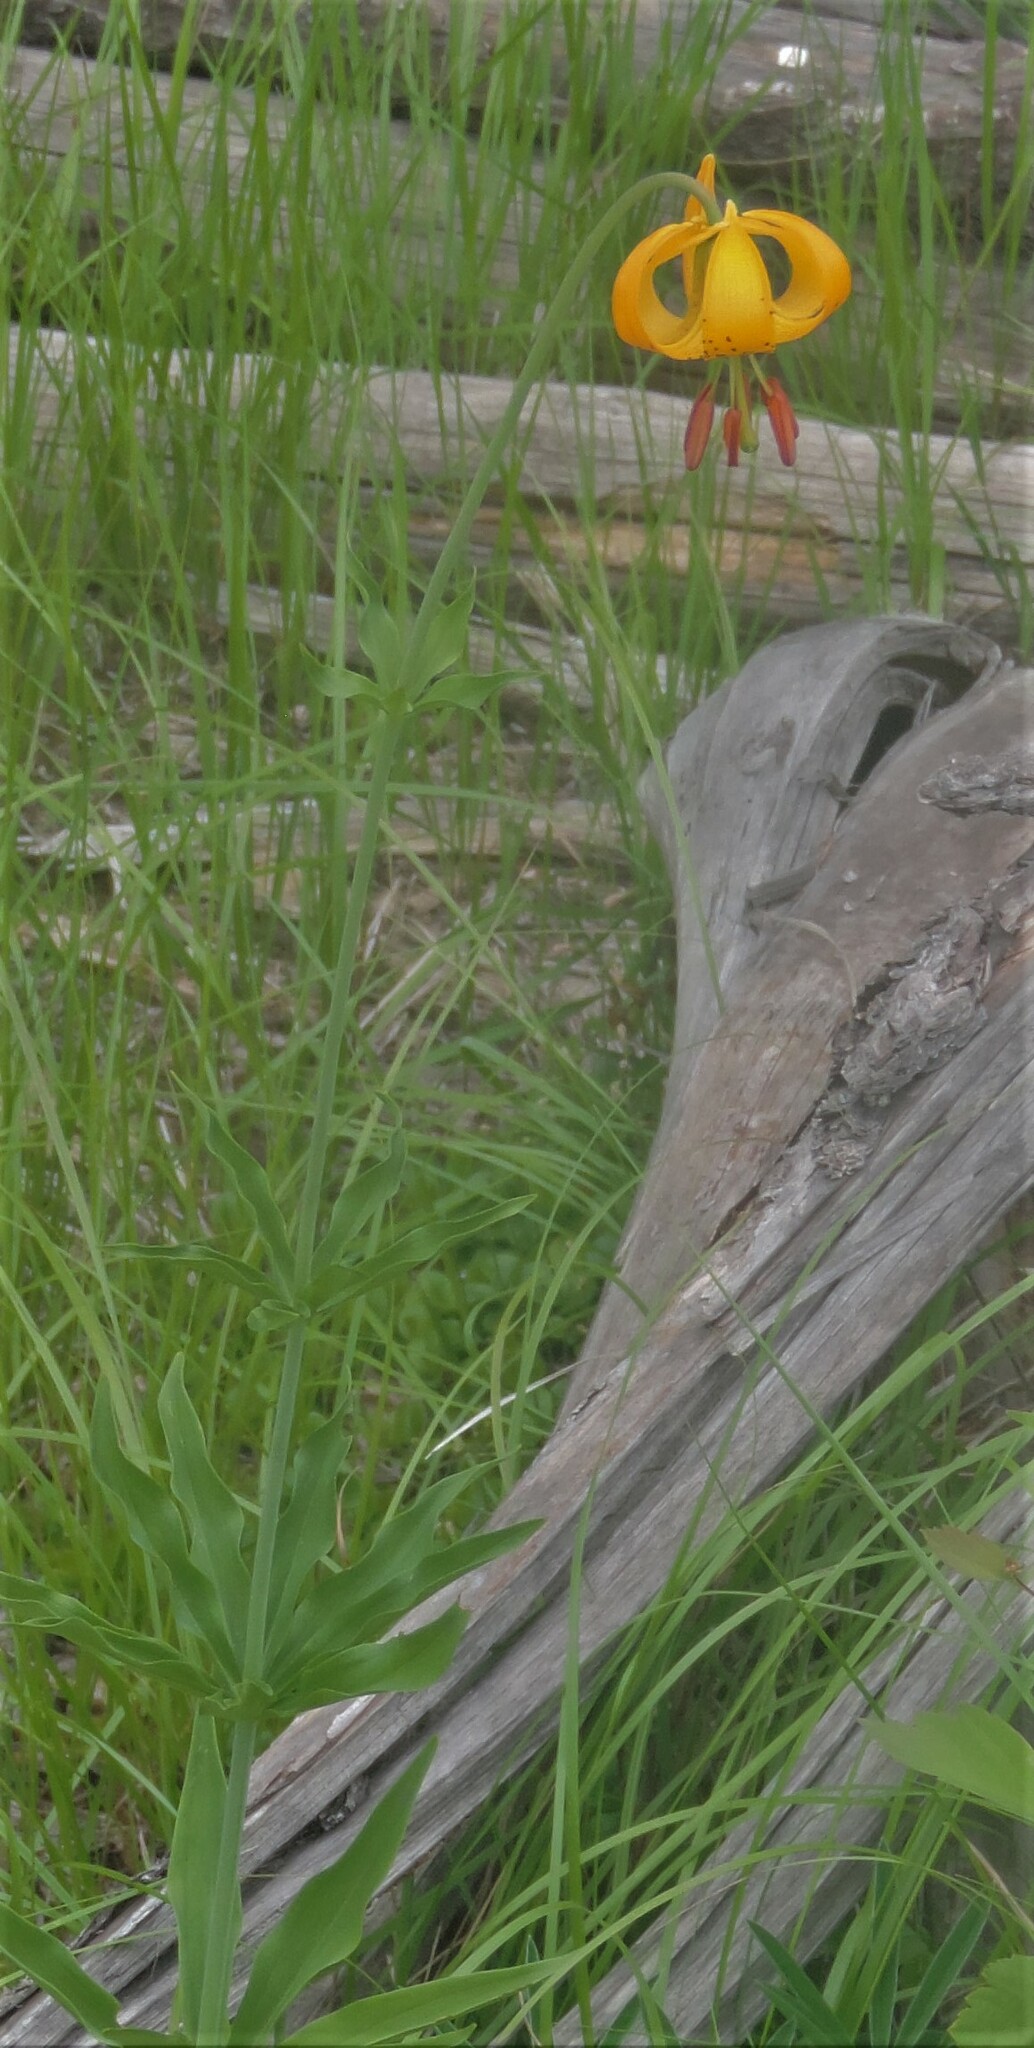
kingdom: Plantae
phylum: Tracheophyta
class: Liliopsida
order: Liliales
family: Liliaceae
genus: Lilium
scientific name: Lilium columbianum
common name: Columbia lily
